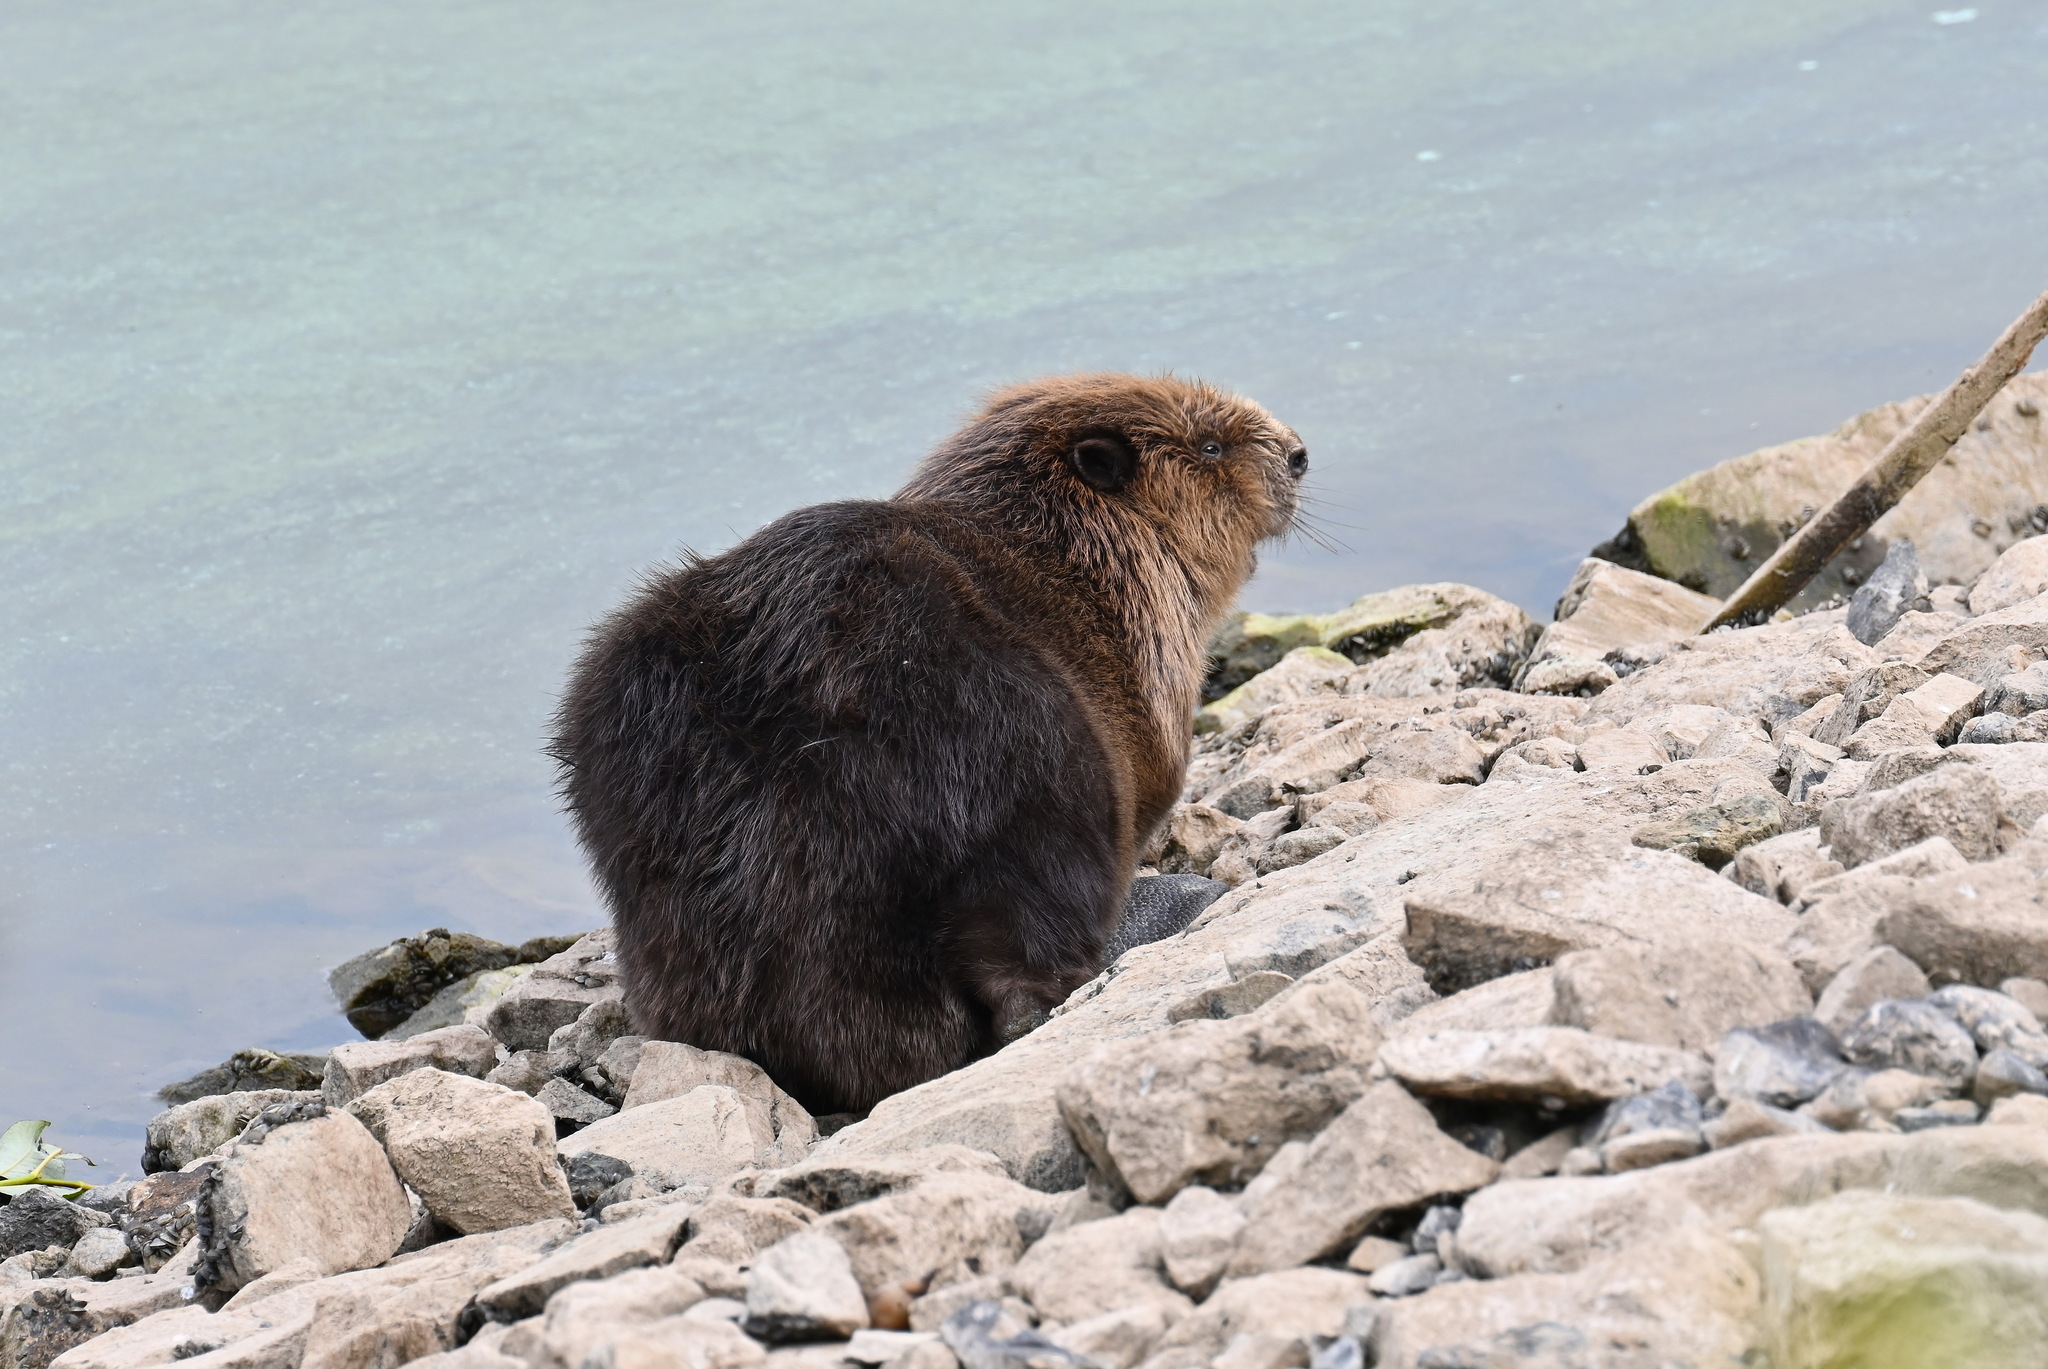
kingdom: Animalia
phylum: Chordata
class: Mammalia
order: Rodentia
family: Castoridae
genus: Castor
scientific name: Castor fiber
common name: Eurasian beaver
